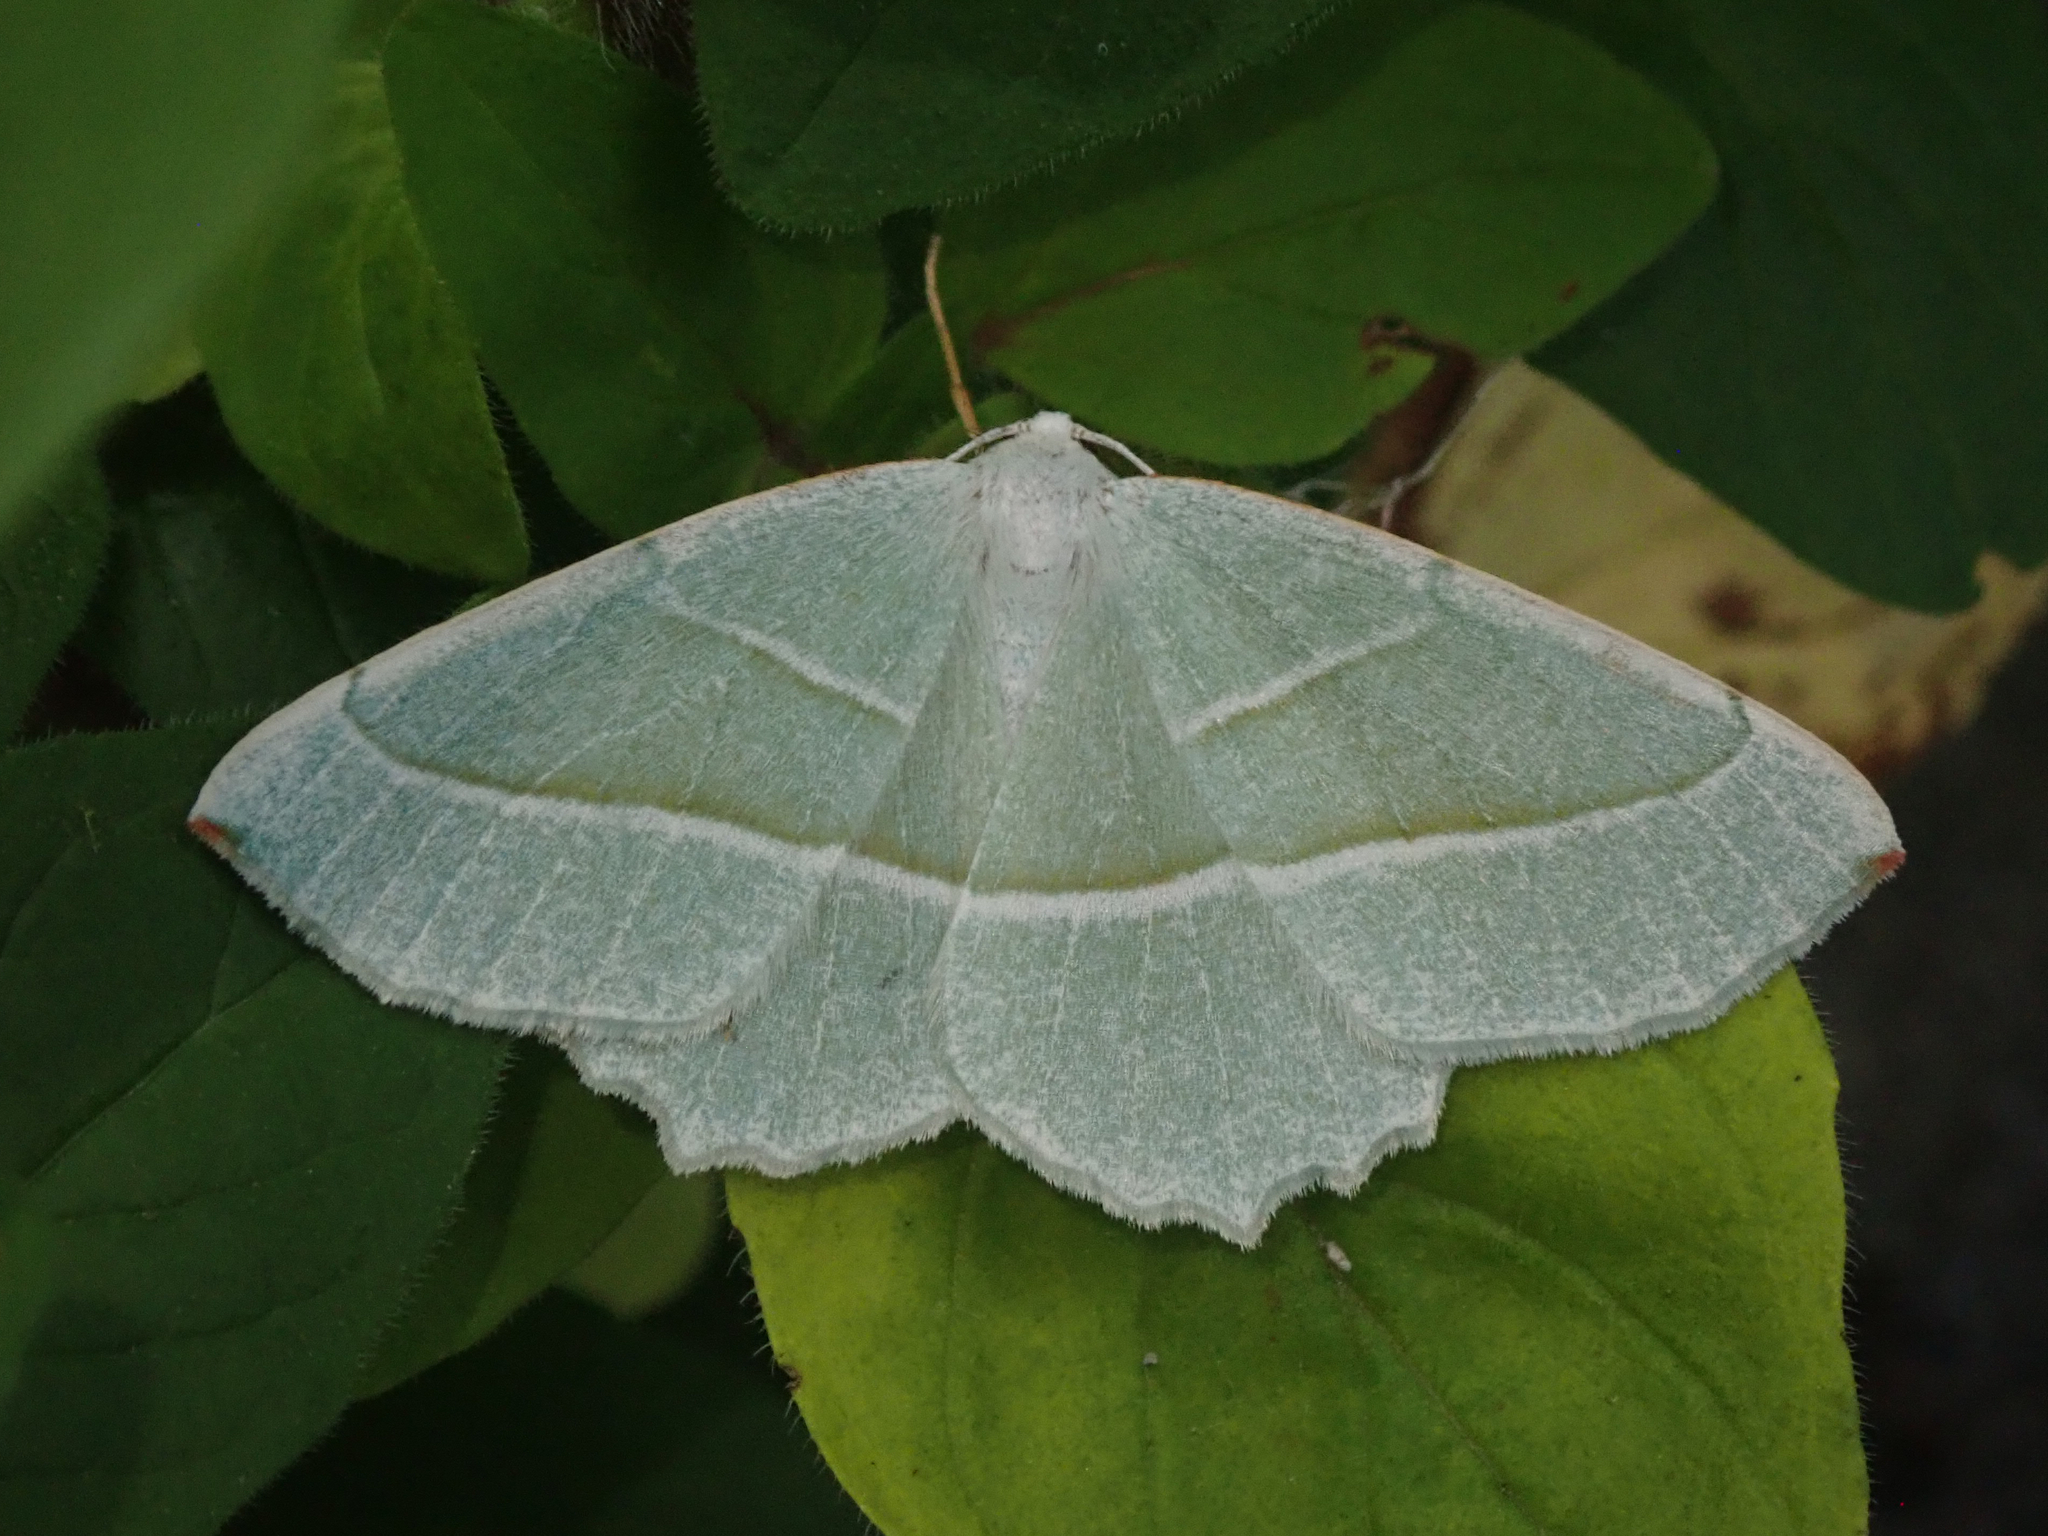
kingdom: Animalia
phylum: Arthropoda
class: Insecta
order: Lepidoptera
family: Geometridae
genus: Campaea
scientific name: Campaea margaritaria
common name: Light emerald
